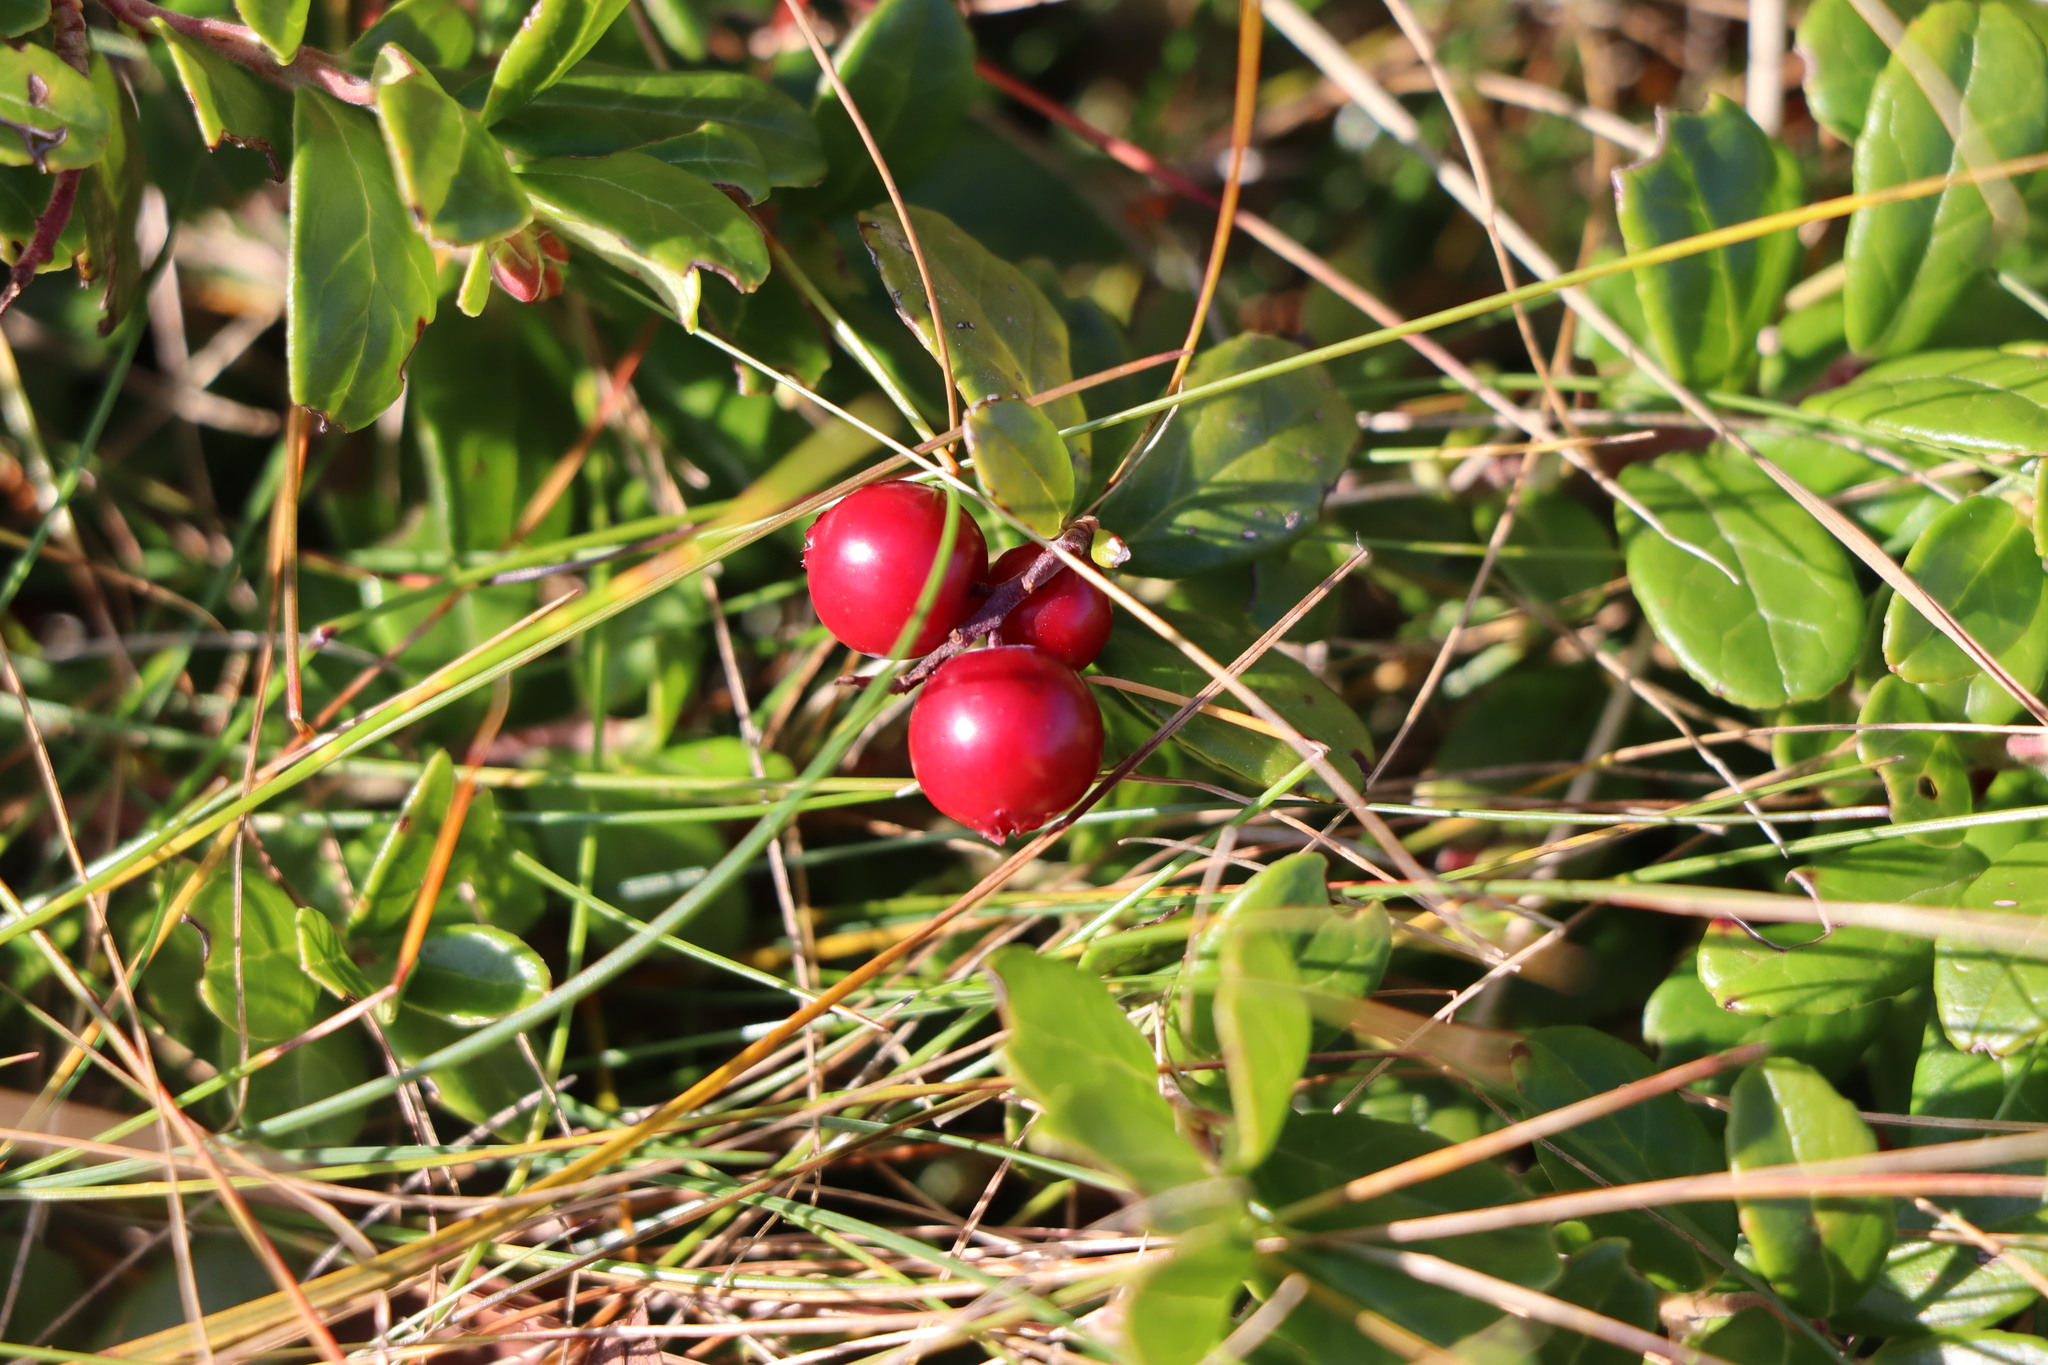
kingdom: Plantae
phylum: Tracheophyta
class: Magnoliopsida
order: Ericales
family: Ericaceae
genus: Vaccinium
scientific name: Vaccinium vitis-idaea
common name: Cowberry
